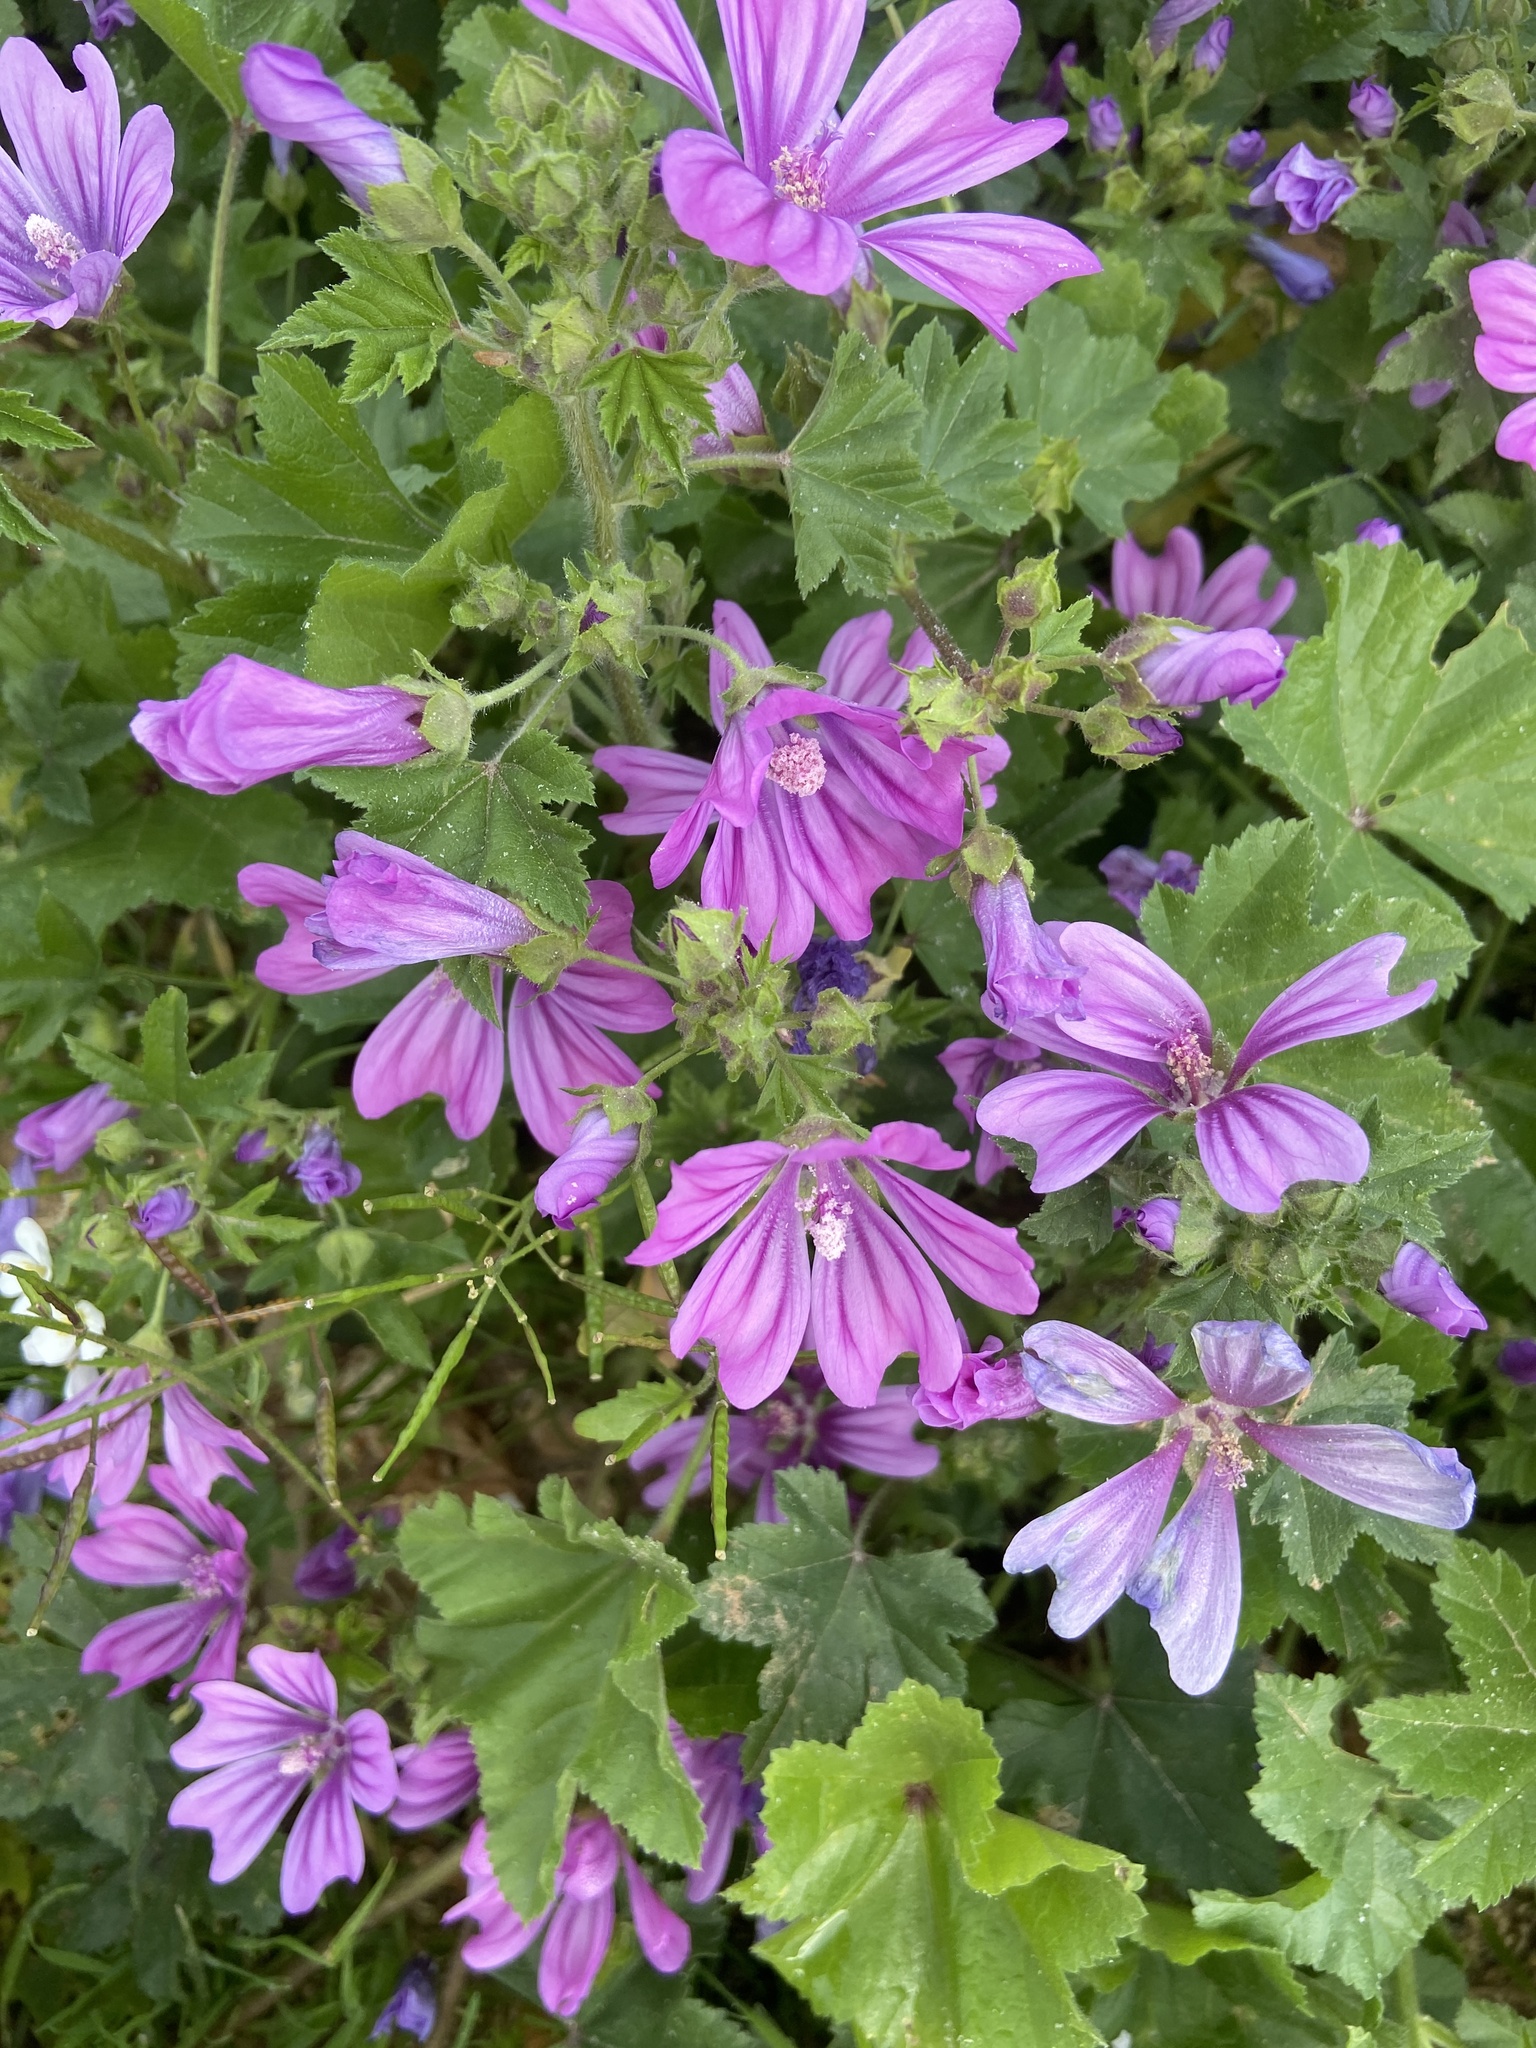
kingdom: Plantae
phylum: Tracheophyta
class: Magnoliopsida
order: Malvales
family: Malvaceae
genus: Malva
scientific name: Malva sylvestris
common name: Common mallow
